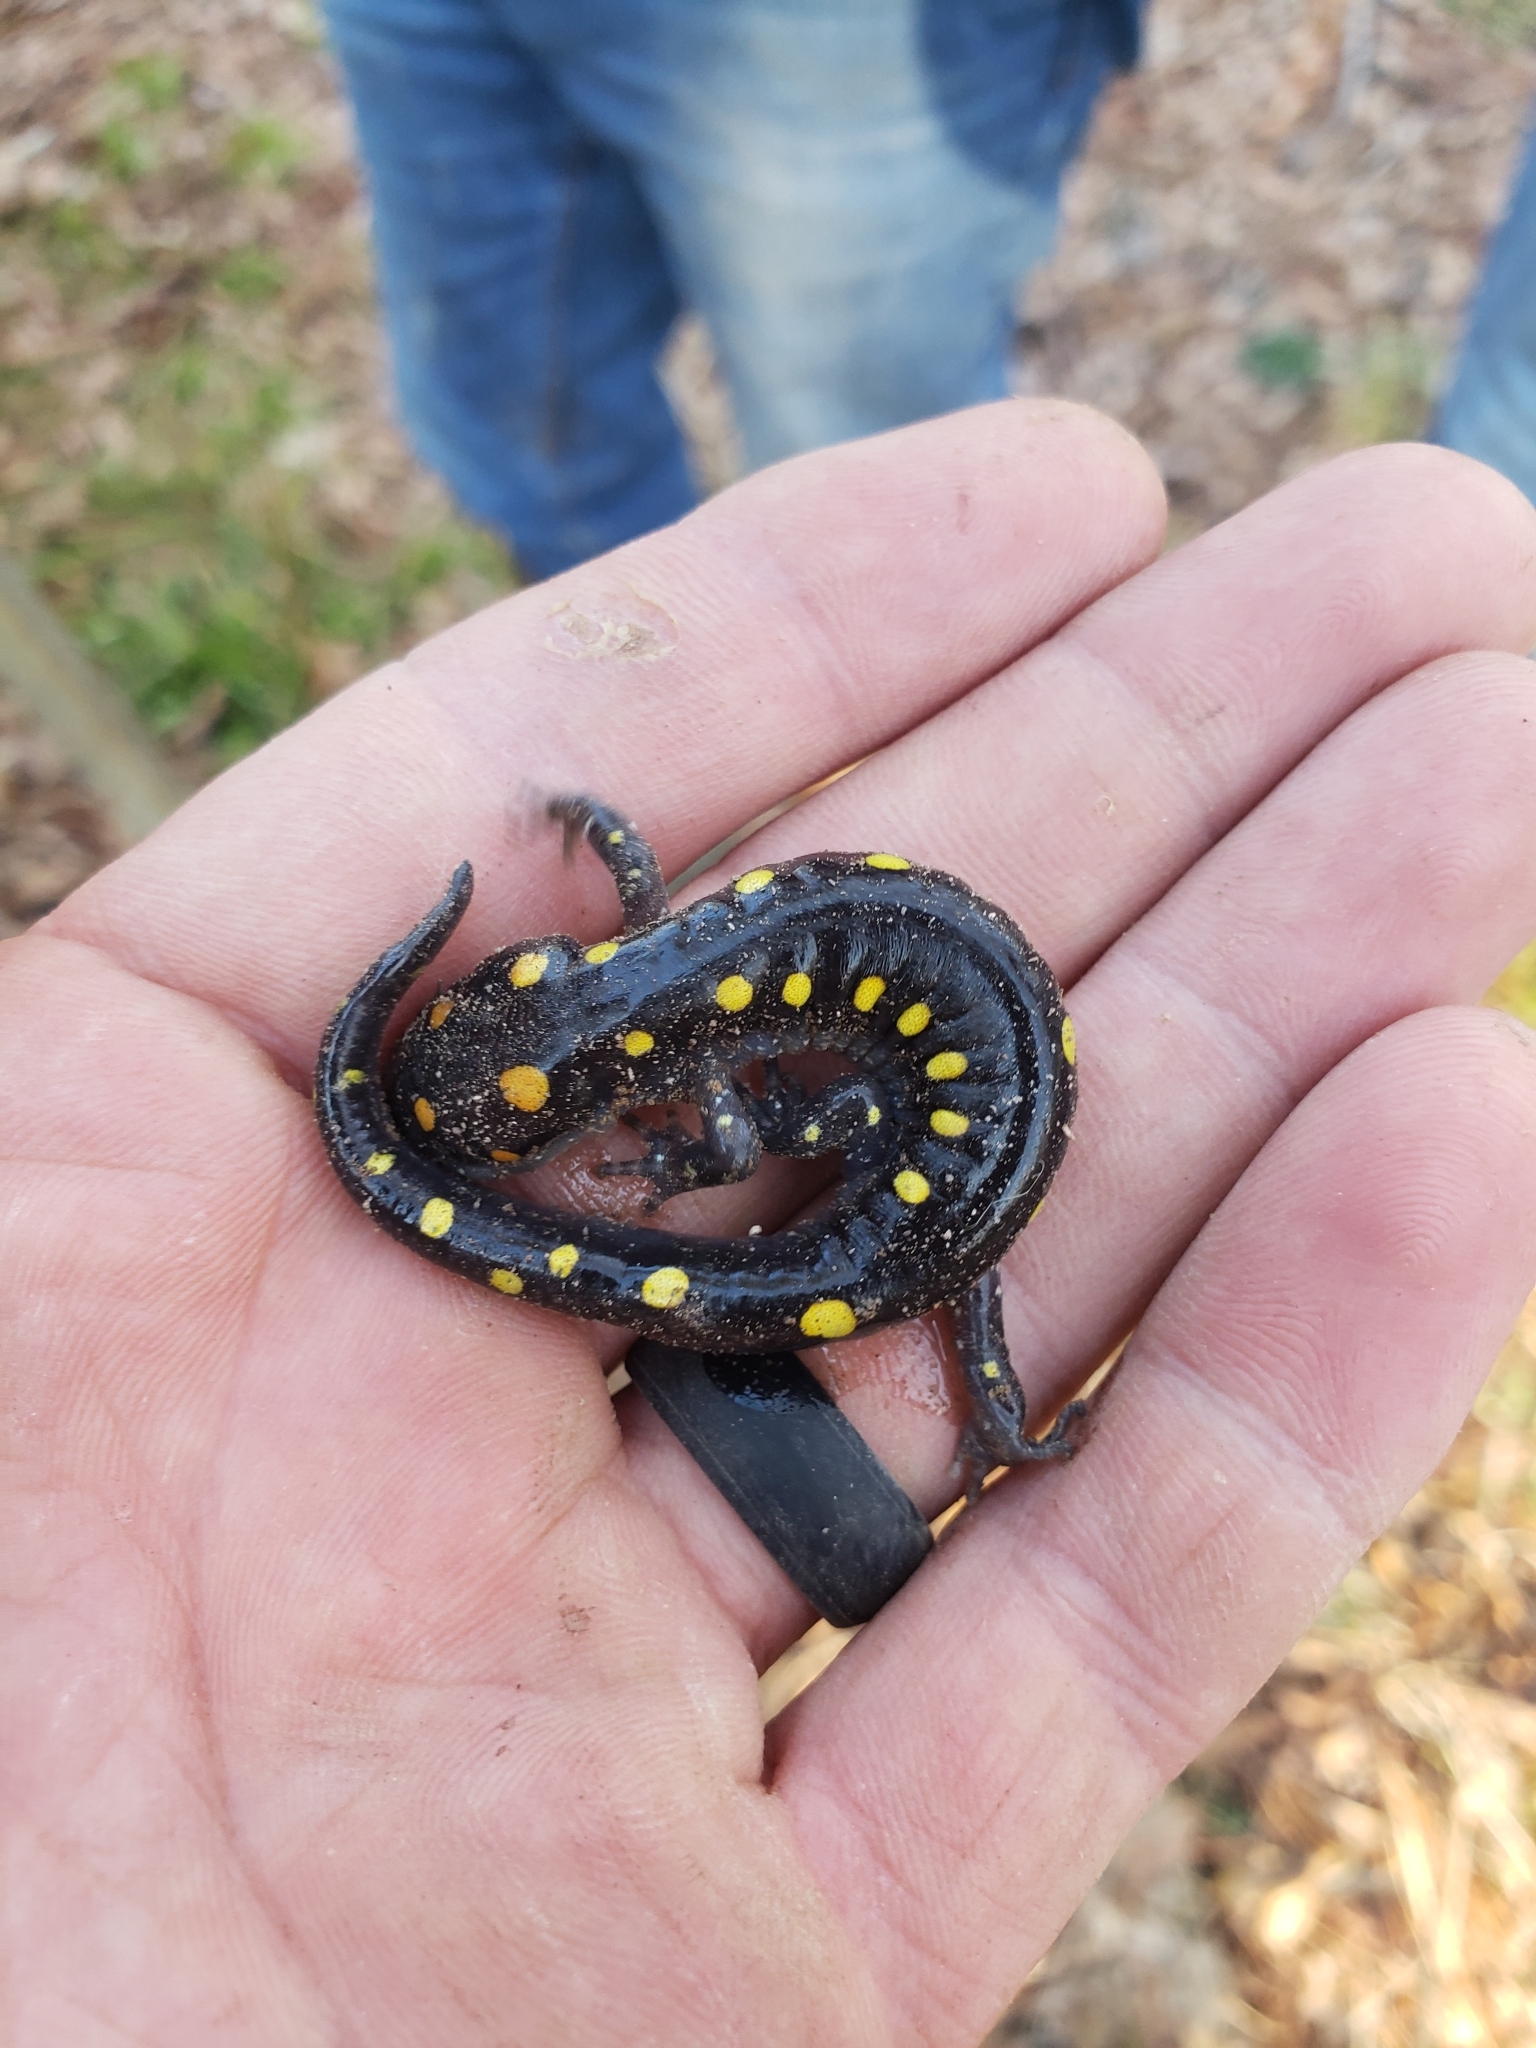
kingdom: Animalia
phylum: Chordata
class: Amphibia
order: Caudata
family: Ambystomatidae
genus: Ambystoma
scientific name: Ambystoma maculatum
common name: Spotted salamander
